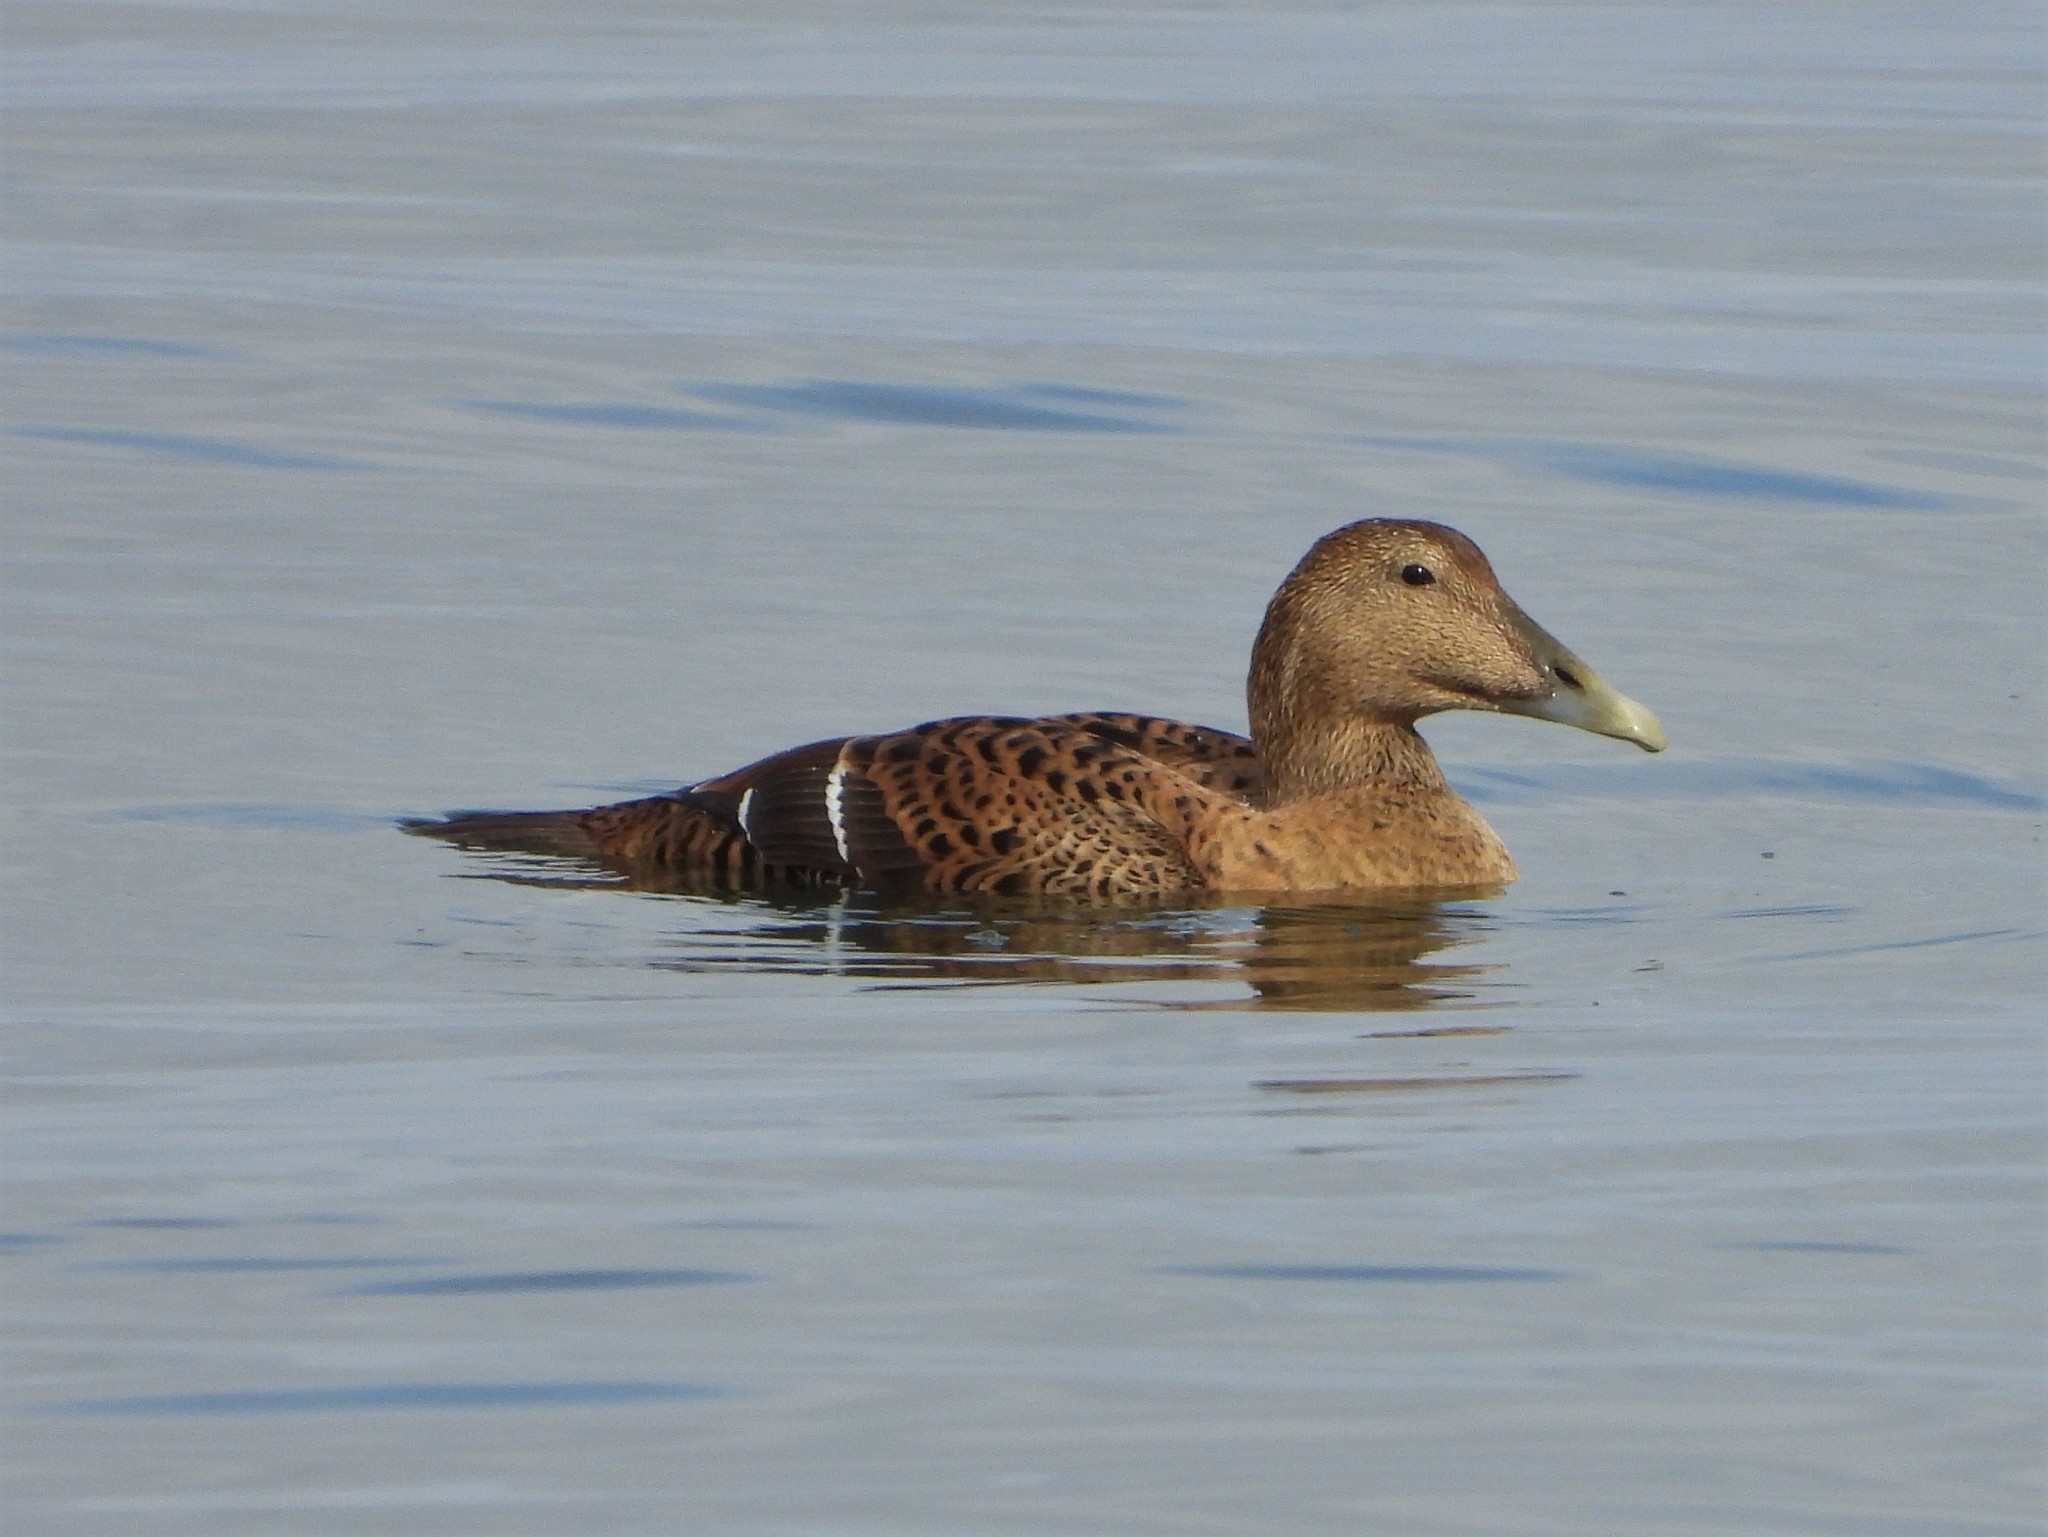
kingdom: Animalia
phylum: Chordata
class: Aves
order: Anseriformes
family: Anatidae
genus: Somateria
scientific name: Somateria mollissima
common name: Common eider
